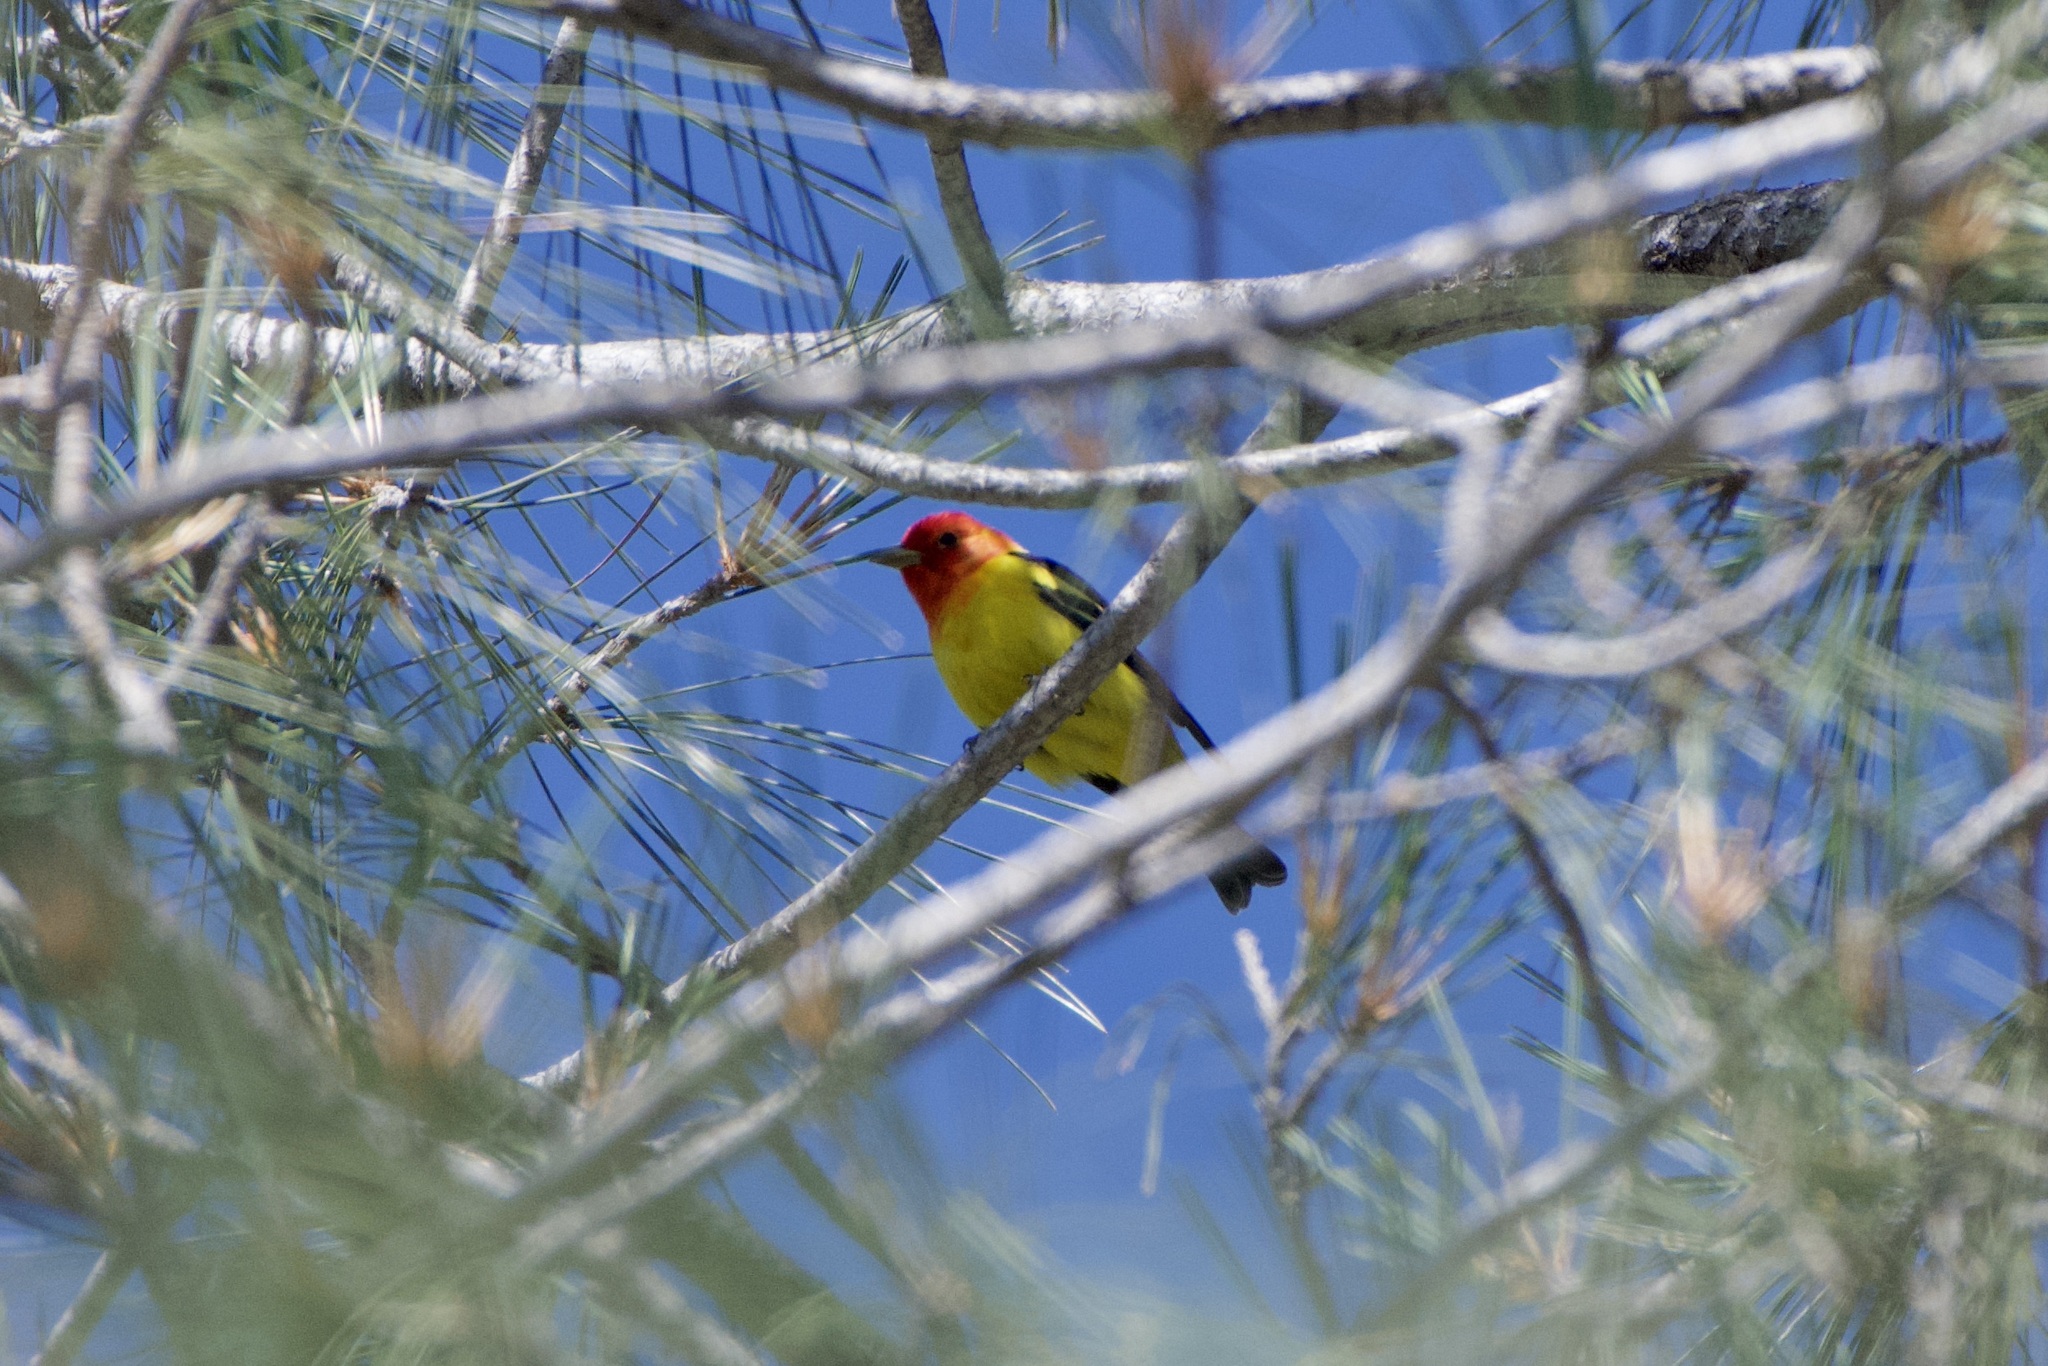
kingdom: Animalia
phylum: Chordata
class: Aves
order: Passeriformes
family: Cardinalidae
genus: Piranga
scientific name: Piranga ludoviciana
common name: Western tanager
